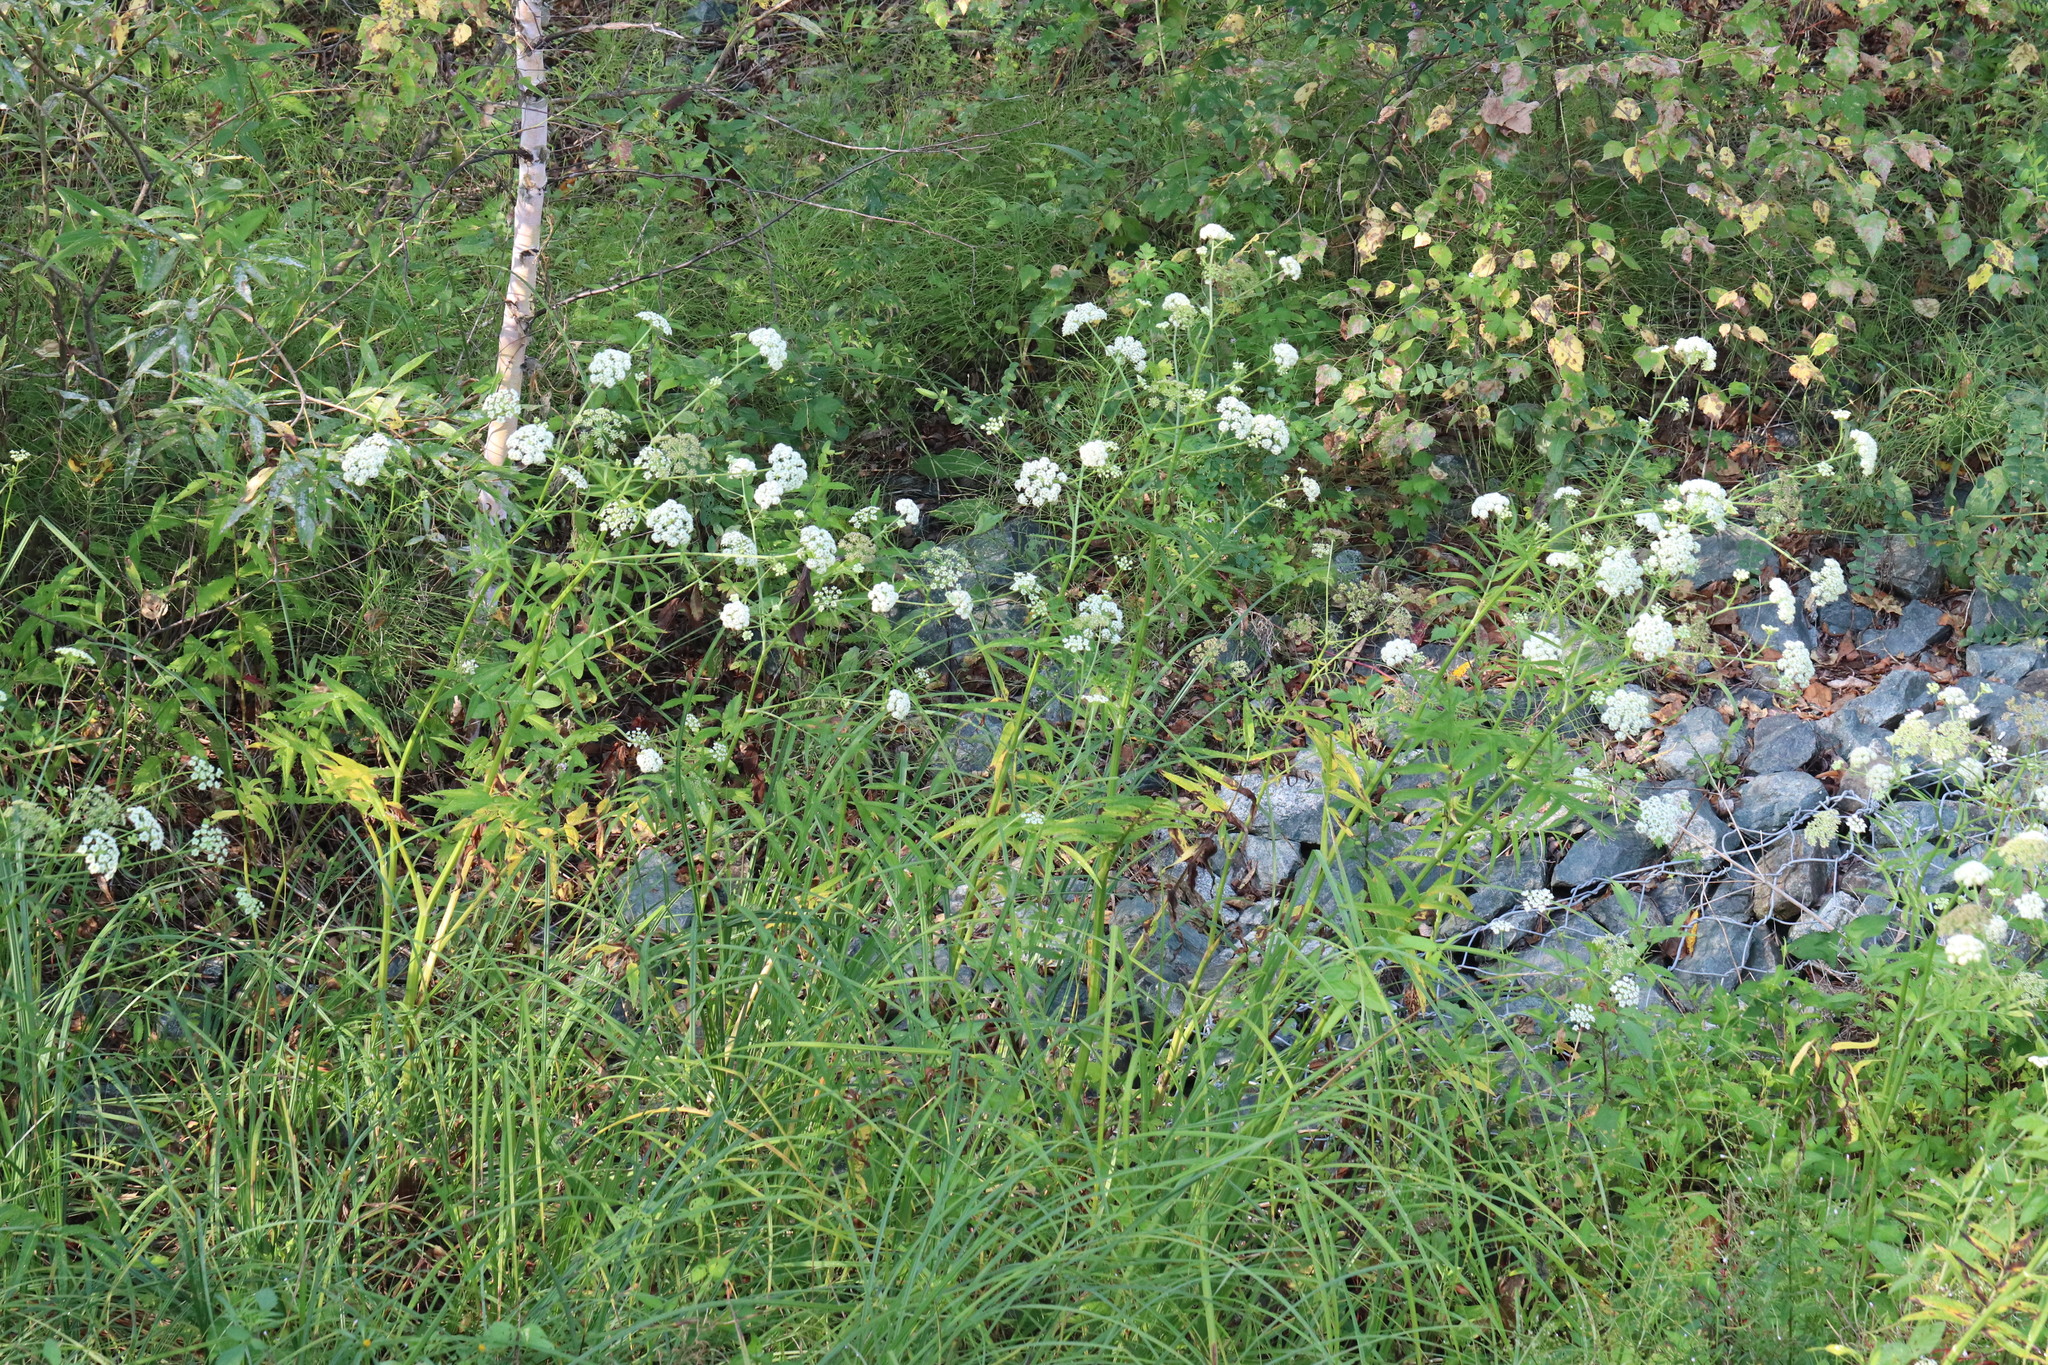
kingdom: Plantae
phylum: Tracheophyta
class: Magnoliopsida
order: Apiales
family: Apiaceae
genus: Sium
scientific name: Sium suave
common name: Hemlock water-parsnip
